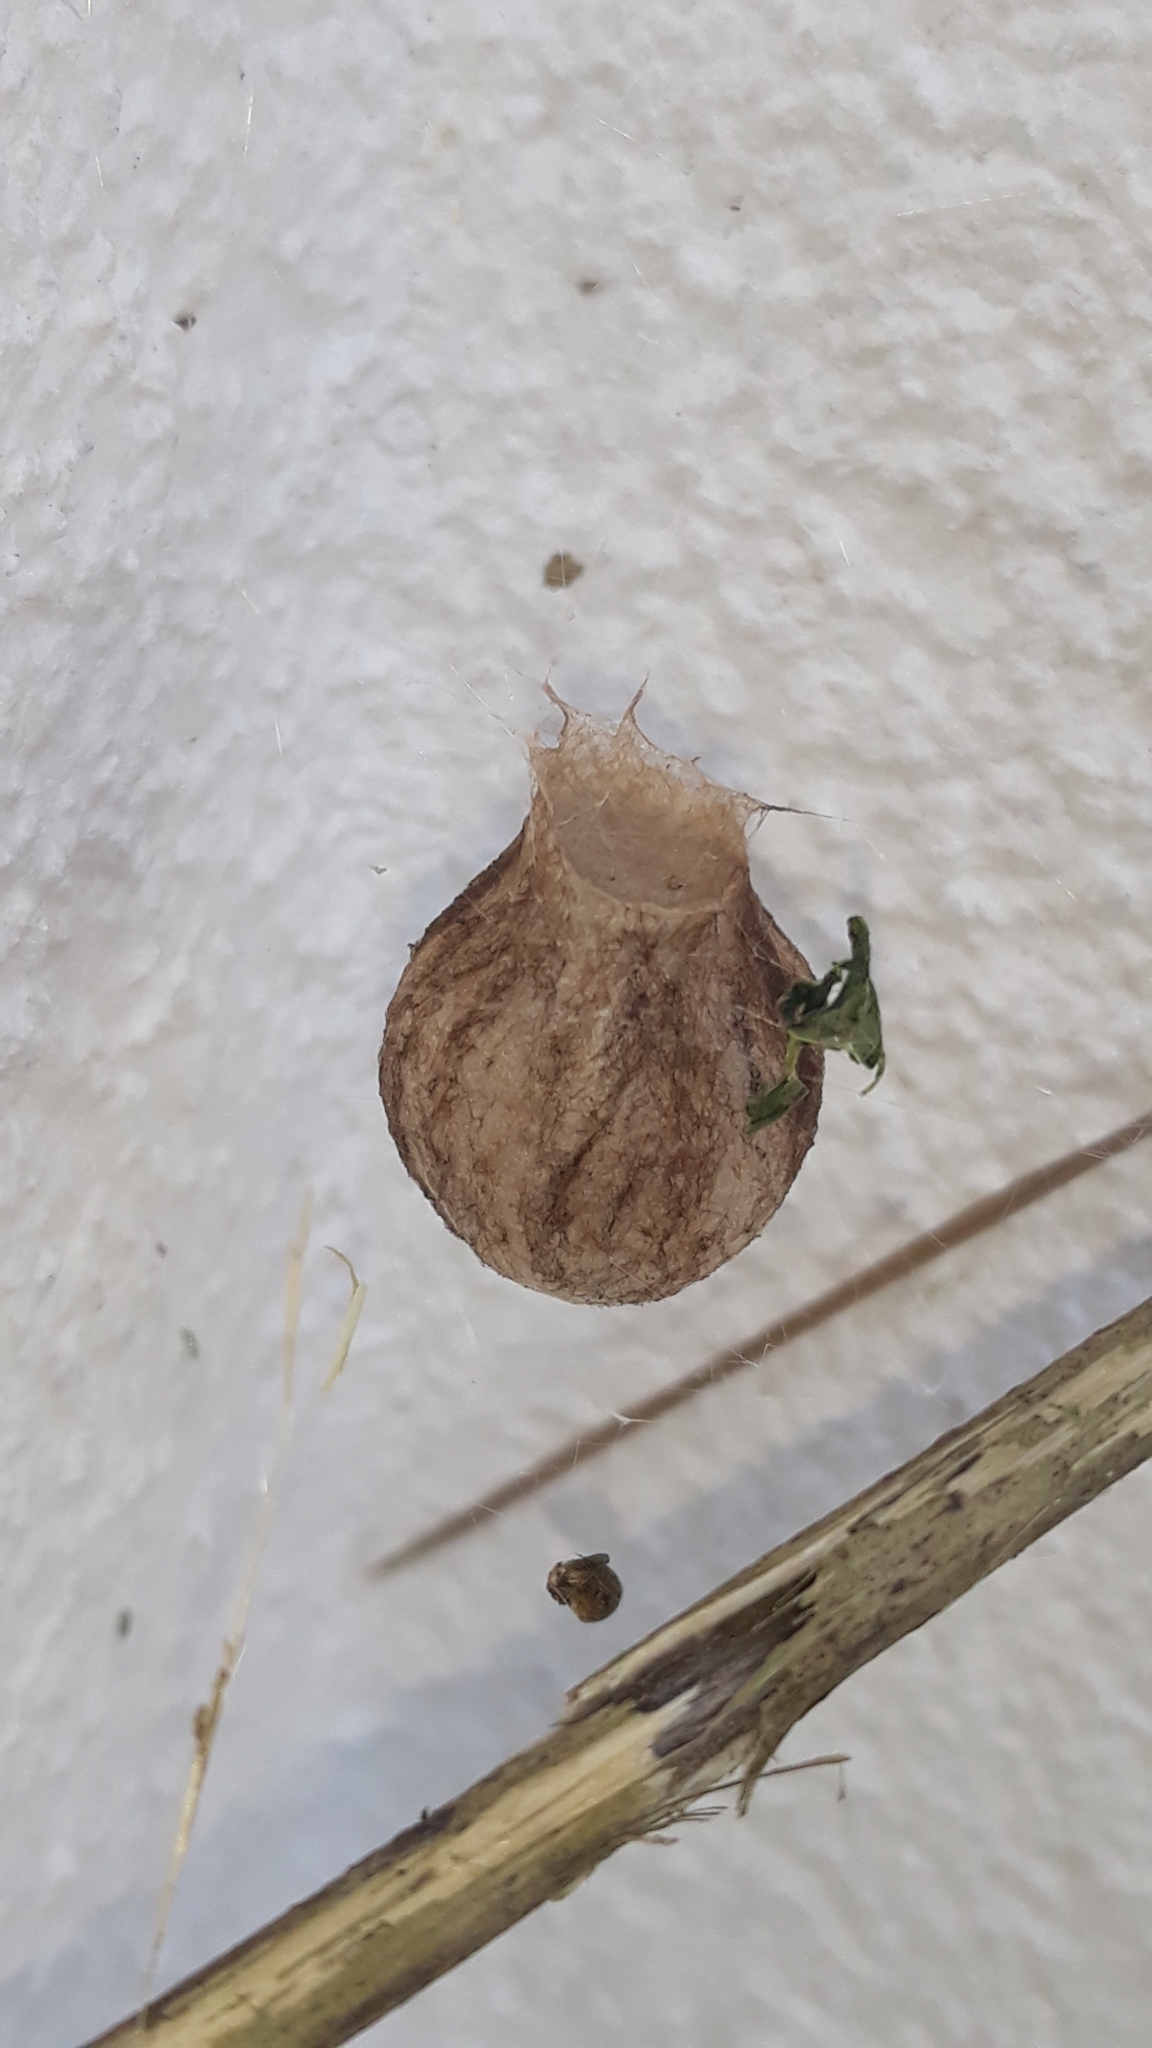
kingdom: Animalia
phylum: Arthropoda
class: Arachnida
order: Araneae
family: Araneidae
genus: Argiope
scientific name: Argiope bruennichi
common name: Wasp spider
